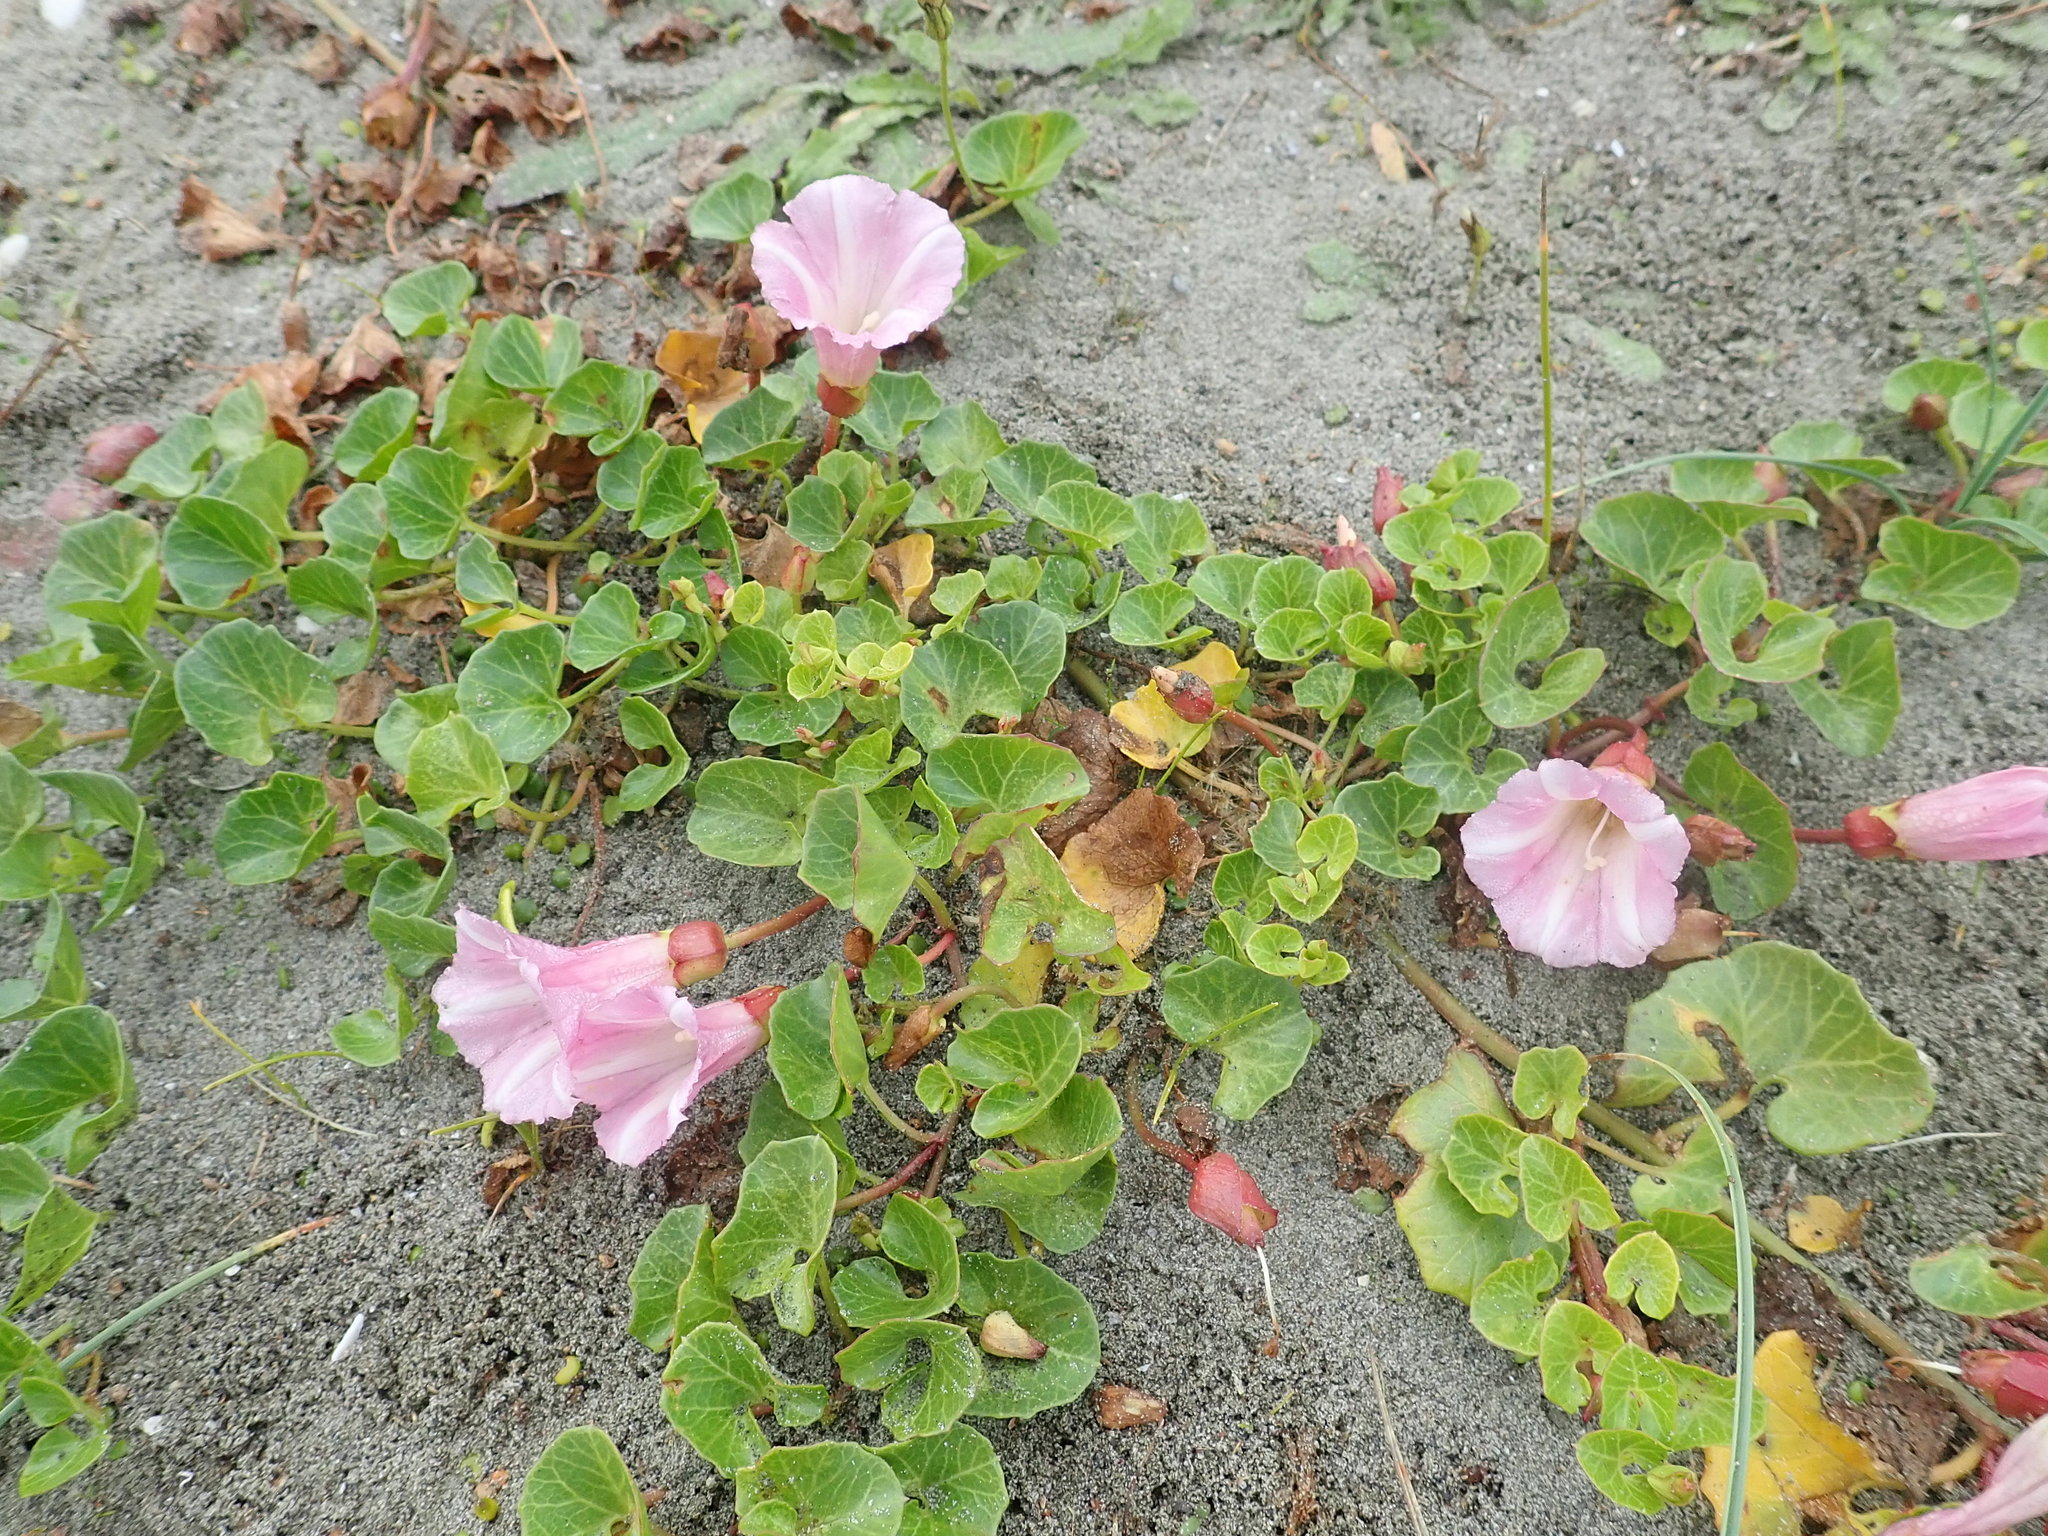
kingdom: Plantae
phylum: Tracheophyta
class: Magnoliopsida
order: Solanales
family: Convolvulaceae
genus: Calystegia
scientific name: Calystegia soldanella
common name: Sea bindweed
